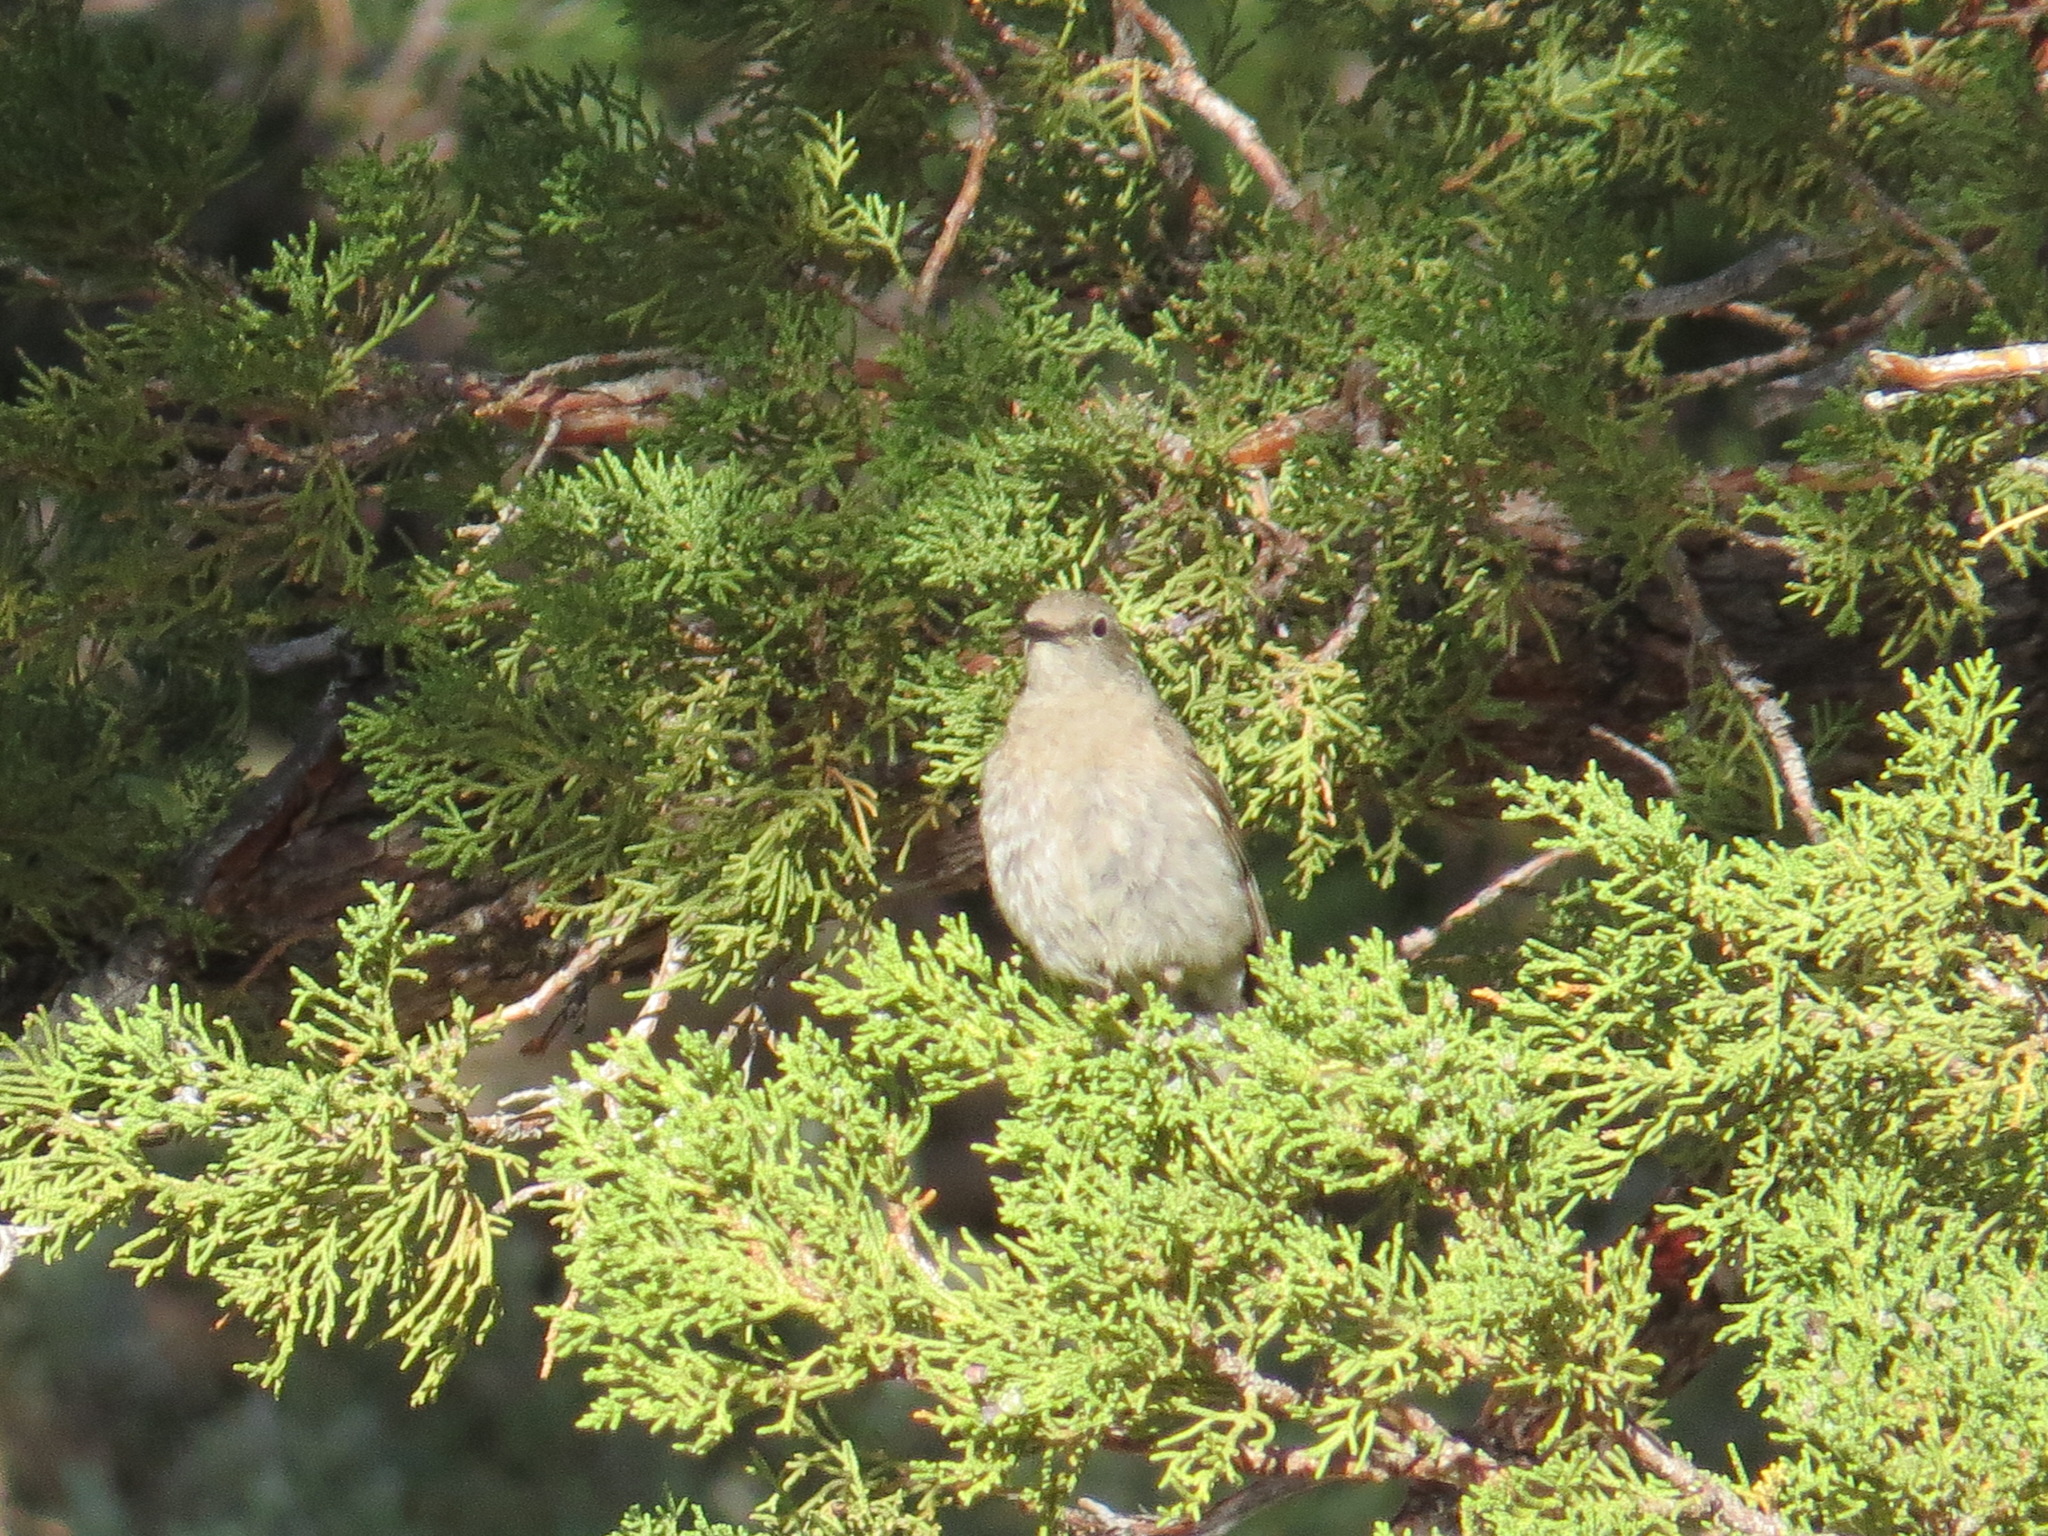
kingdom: Animalia
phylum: Chordata
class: Aves
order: Passeriformes
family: Turdidae
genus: Myadestes
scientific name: Myadestes townsendi
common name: Townsend's solitaire
